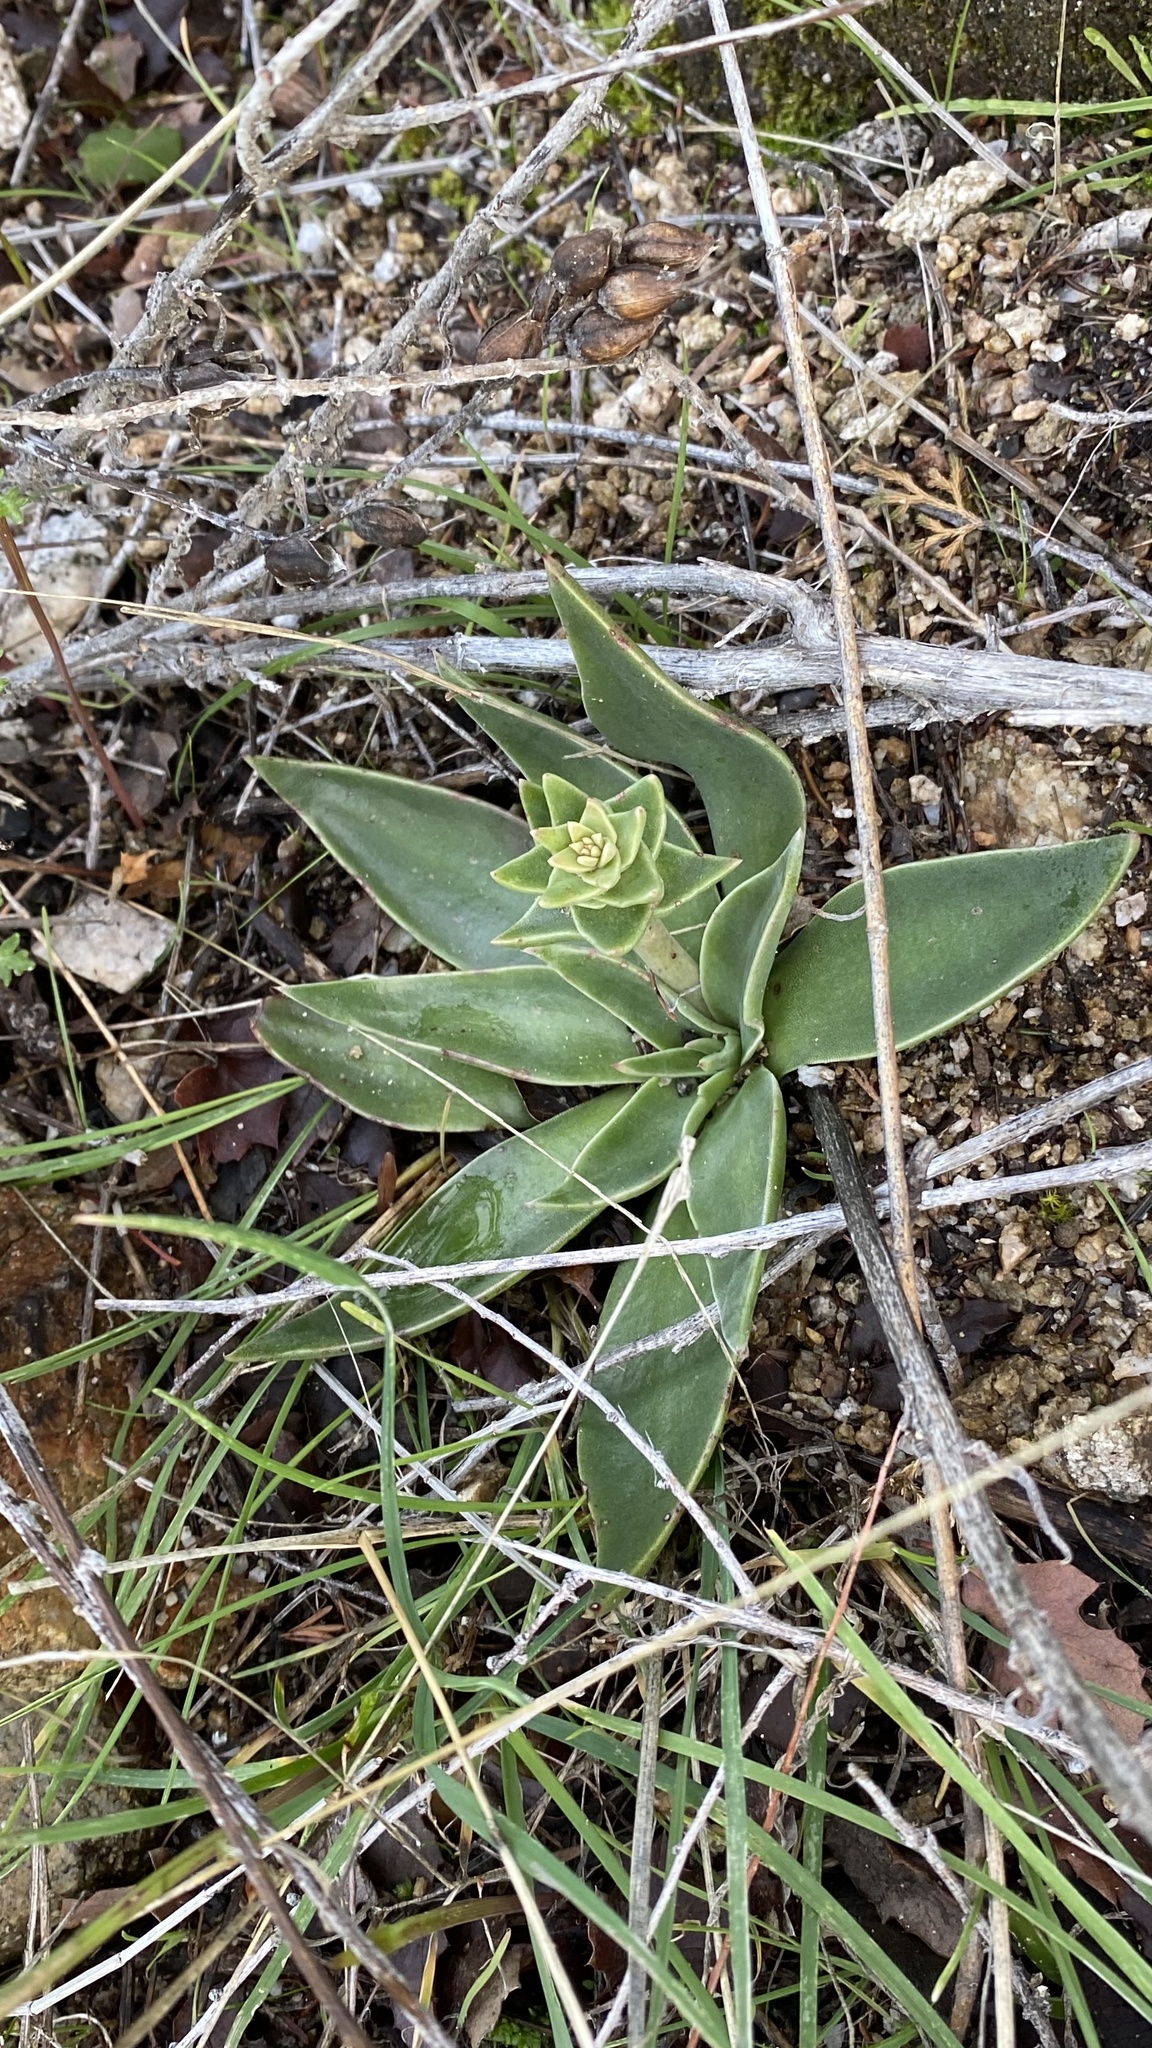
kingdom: Plantae
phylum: Tracheophyta
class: Magnoliopsida
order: Saxifragales
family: Crassulaceae
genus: Dudleya
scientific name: Dudleya lanceolata
